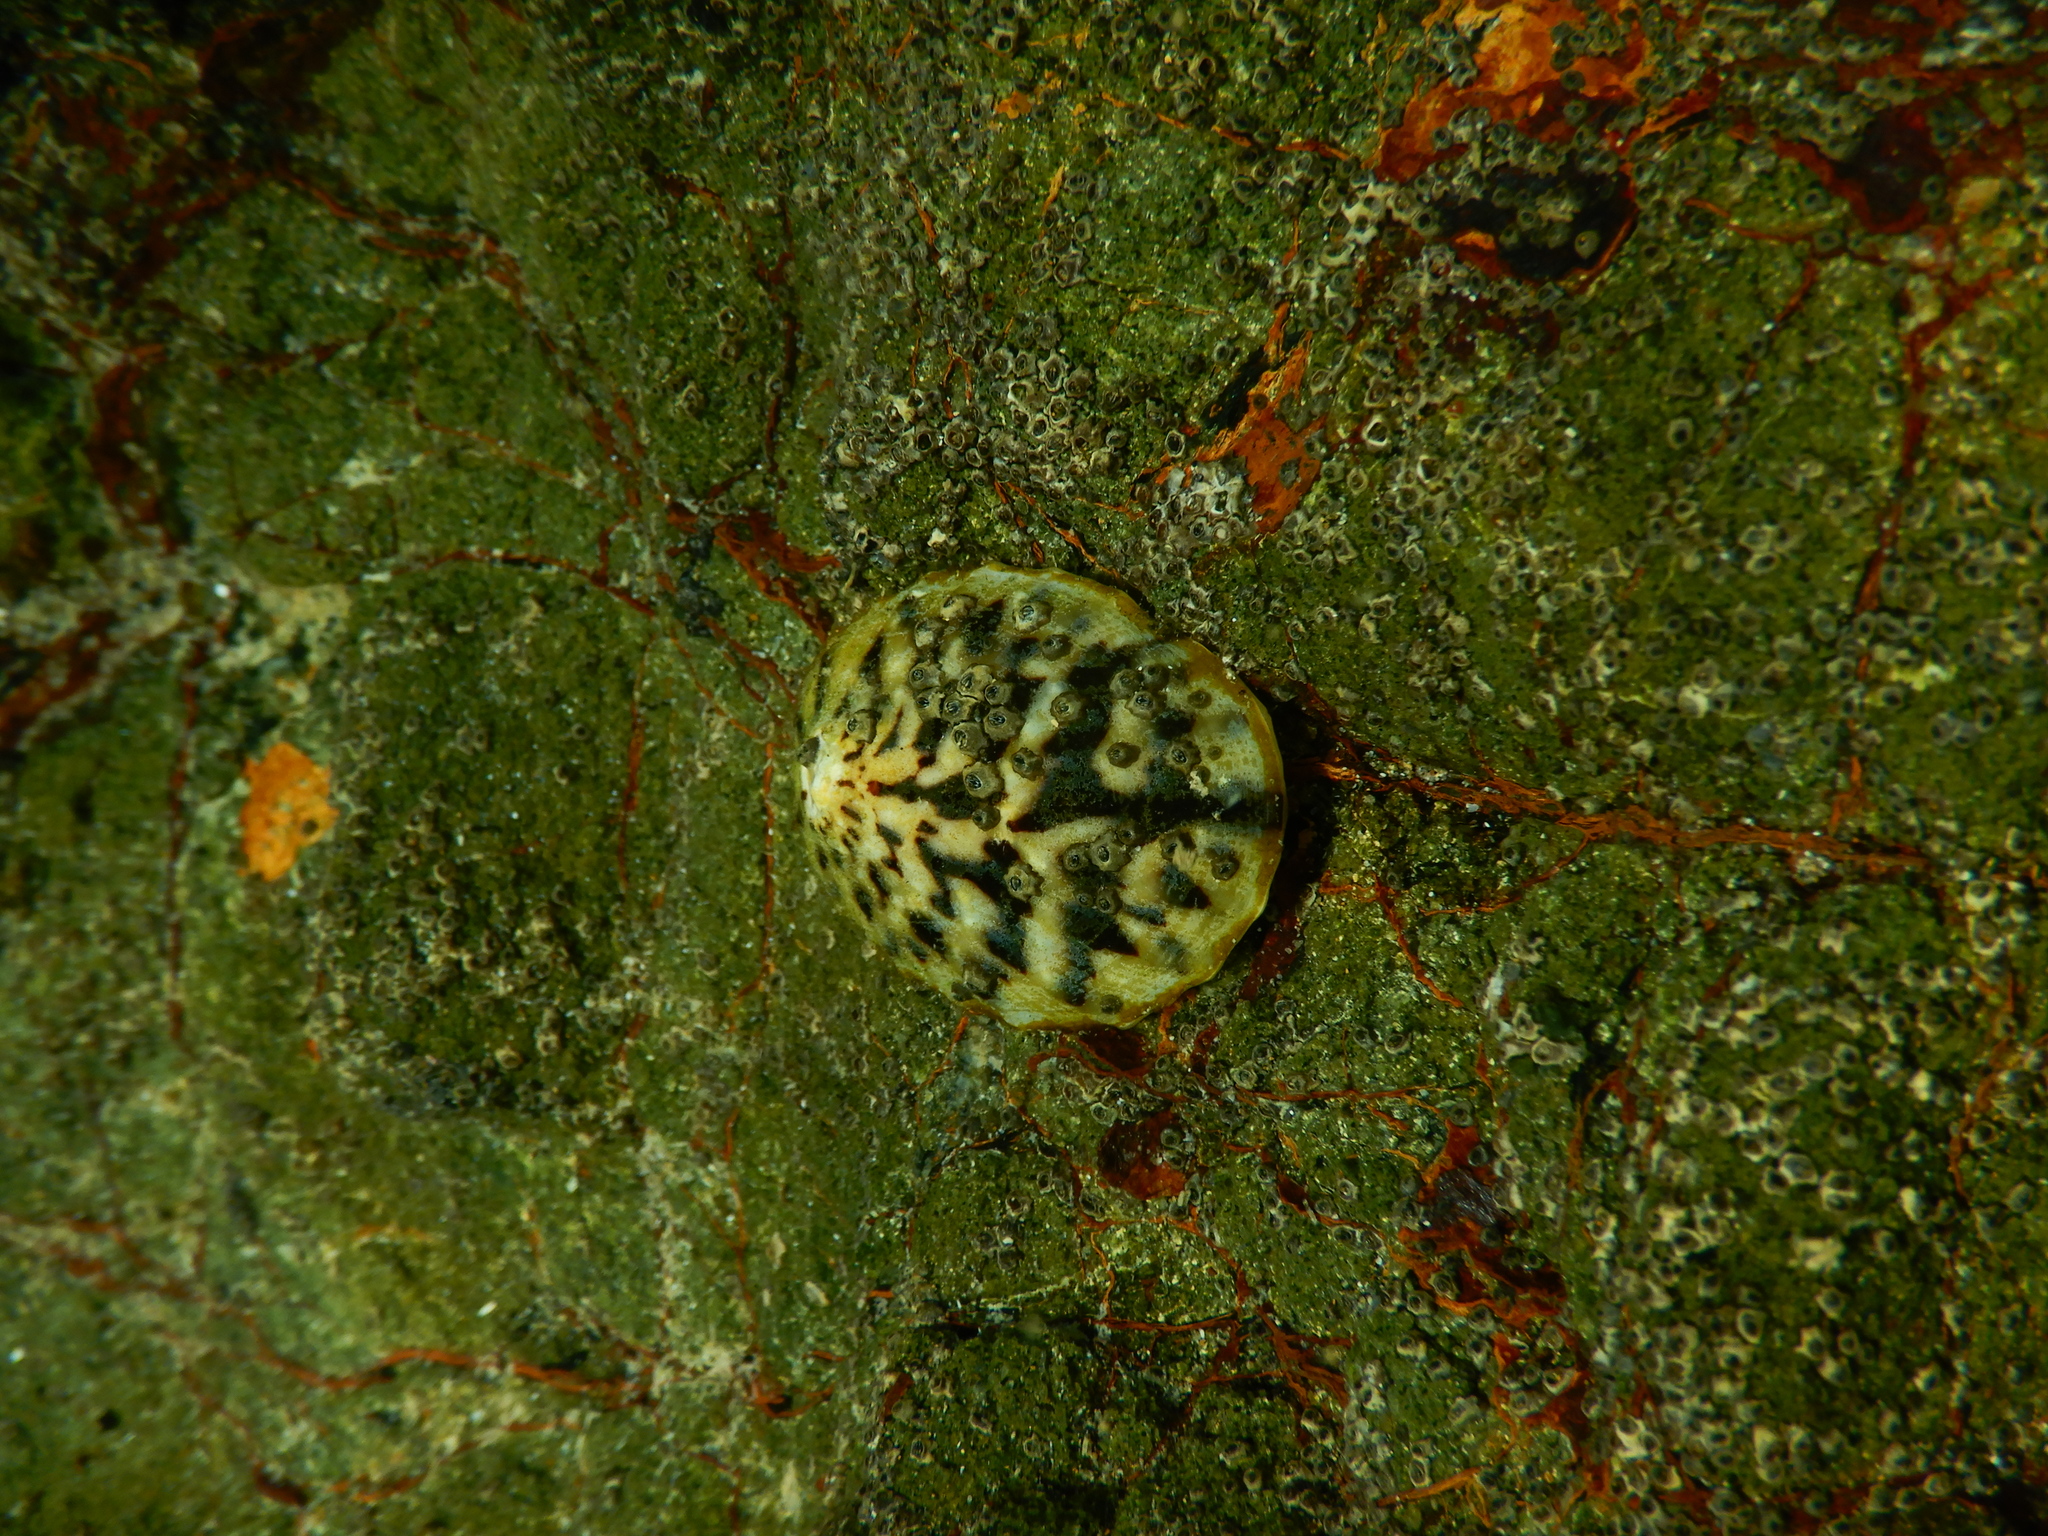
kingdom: Animalia
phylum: Mollusca
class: Gastropoda
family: Nacellidae
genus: Cellana
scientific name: Cellana radians
